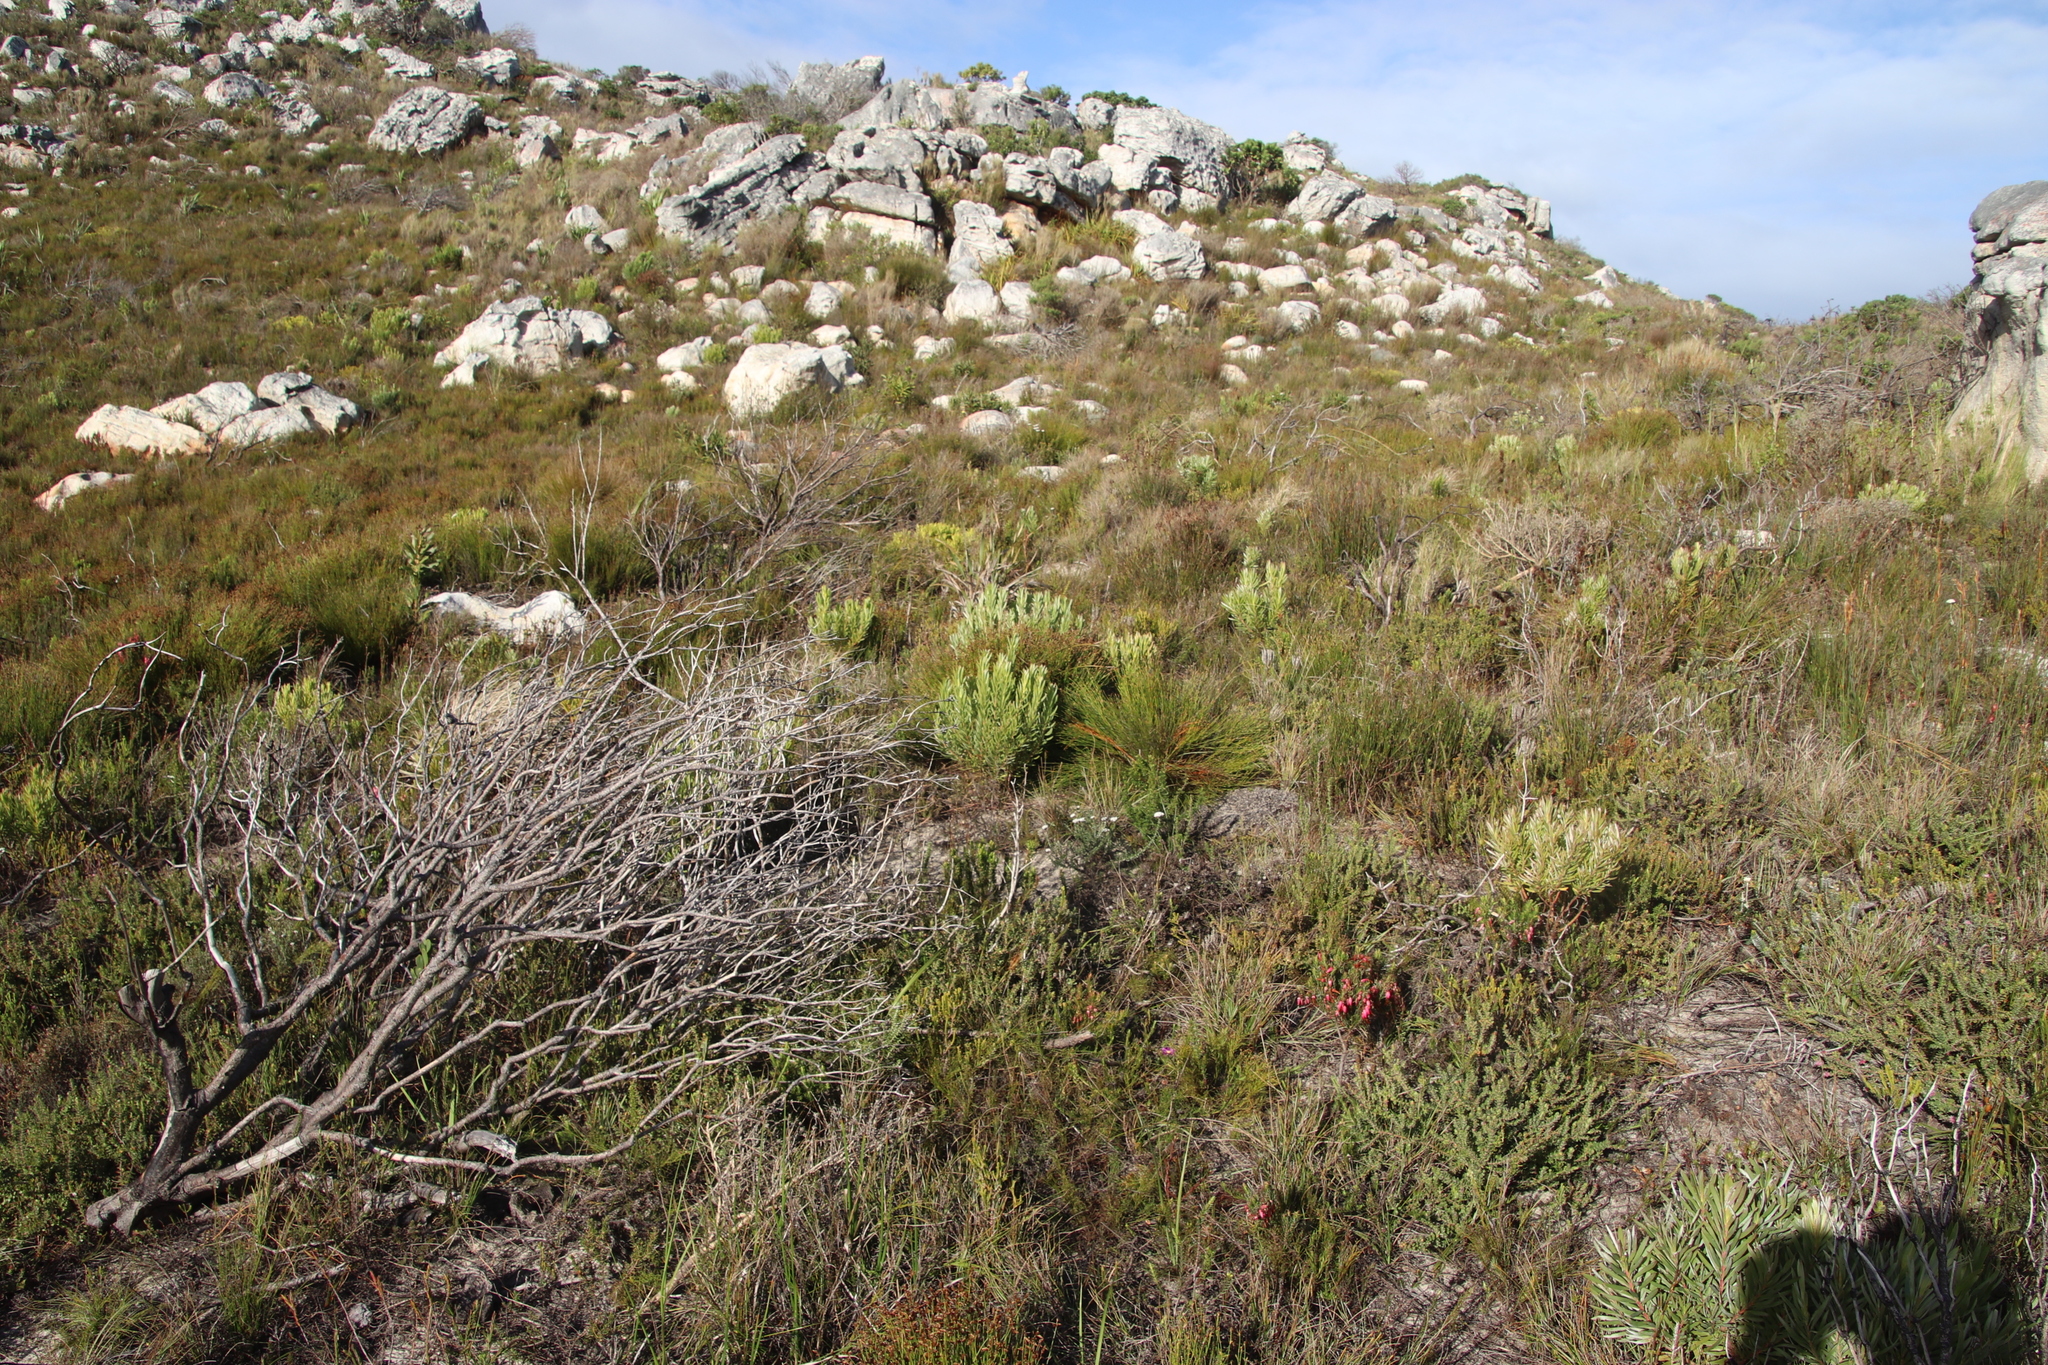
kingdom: Plantae
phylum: Tracheophyta
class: Magnoliopsida
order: Proteales
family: Proteaceae
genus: Leucadendron
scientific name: Leucadendron xanthoconus
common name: Sickle-leaf conebush
